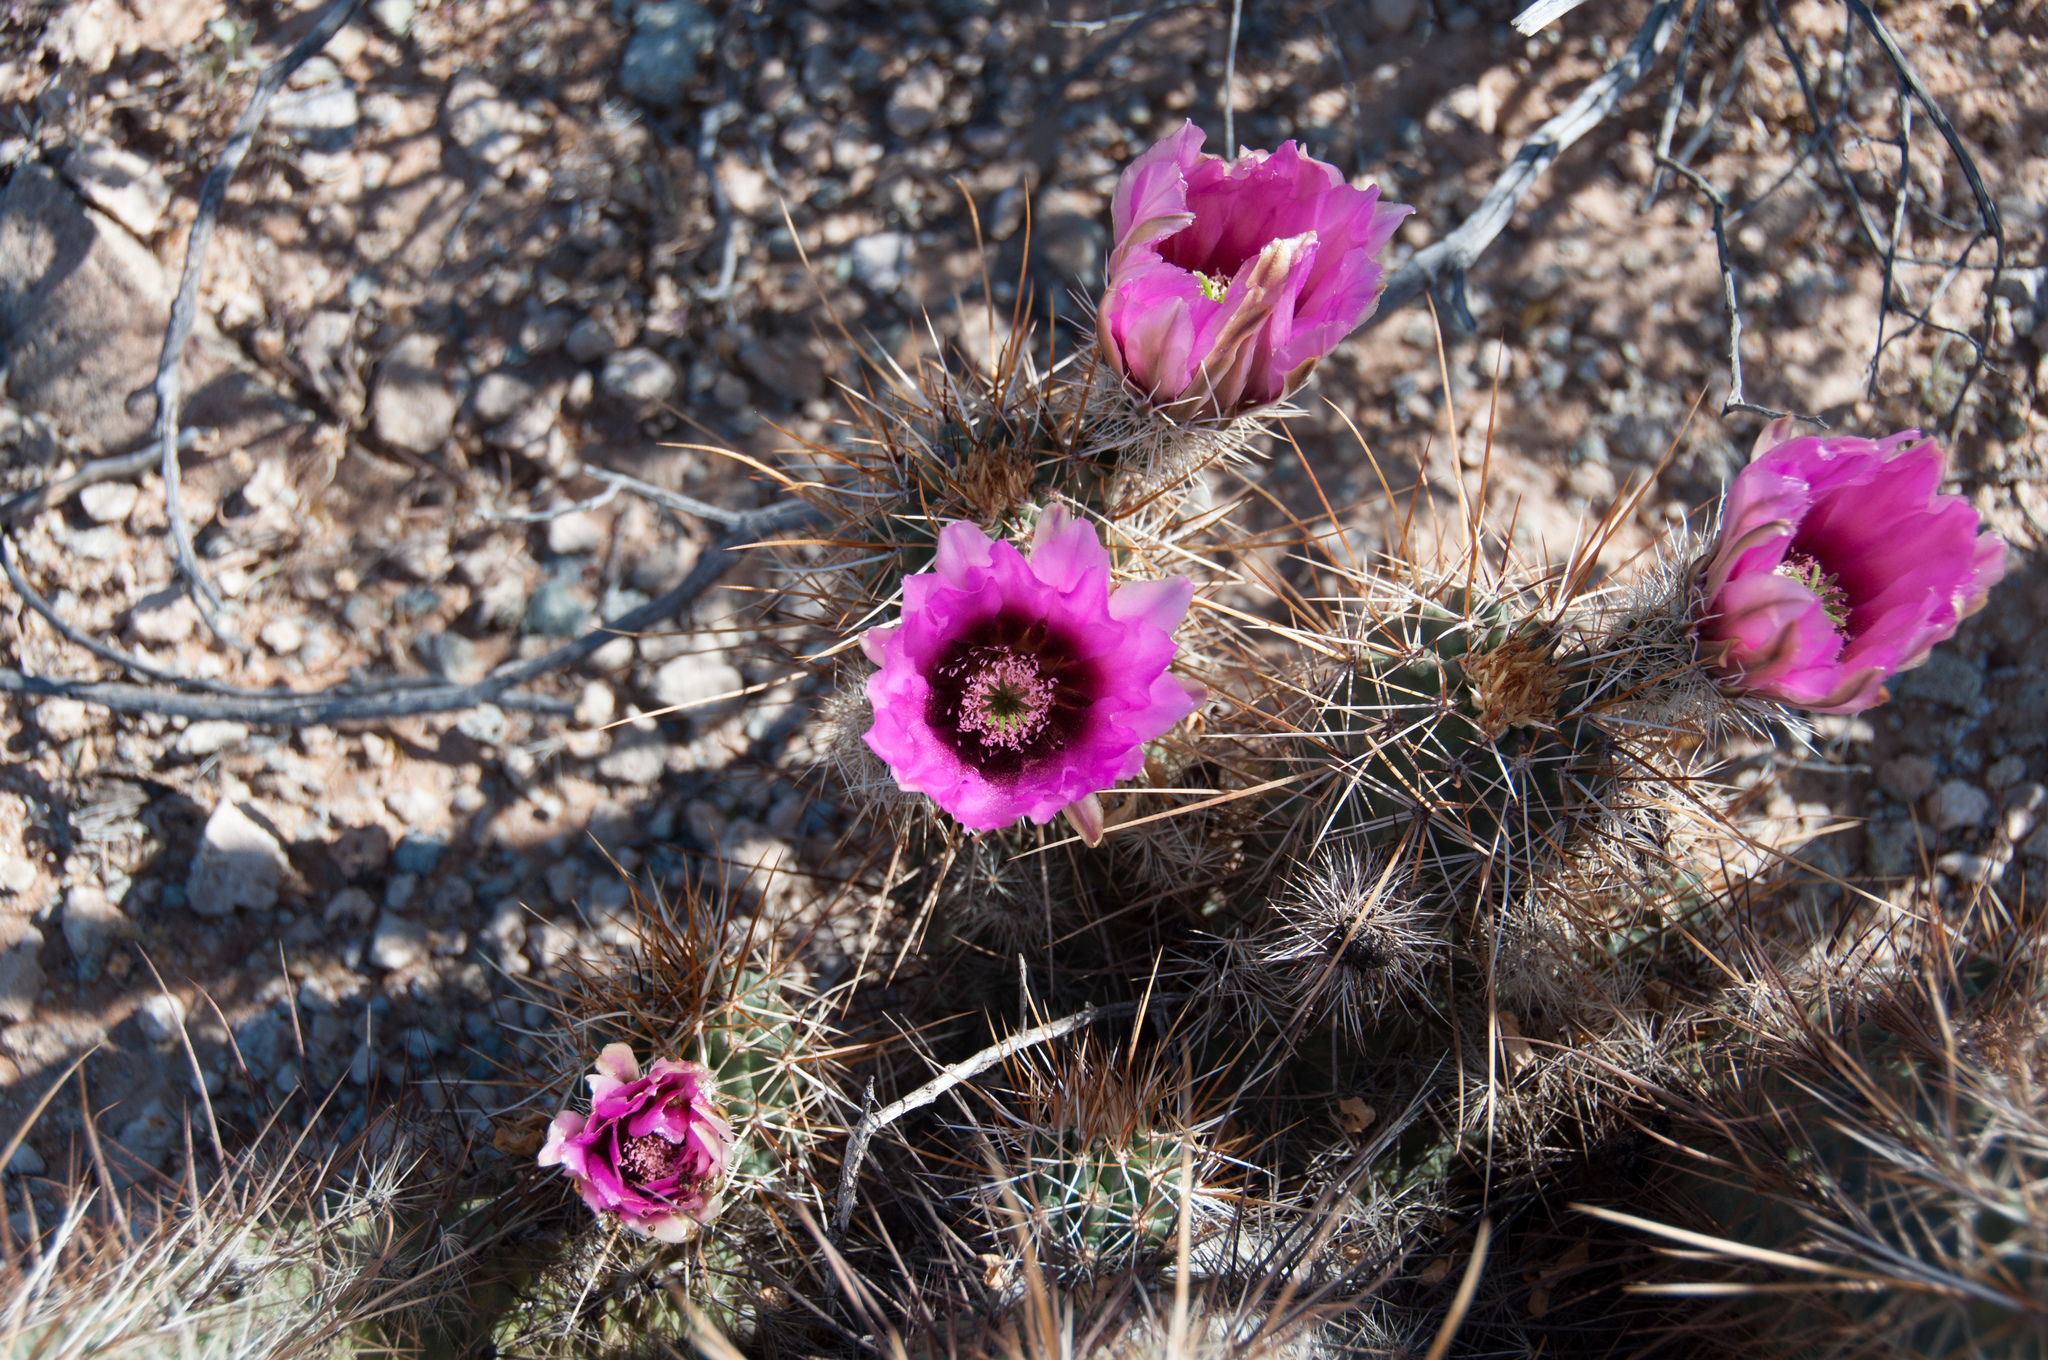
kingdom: Plantae
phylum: Tracheophyta
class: Magnoliopsida
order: Caryophyllales
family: Cactaceae
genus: Echinocereus
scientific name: Echinocereus fasciculatus
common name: Bundle hedgehog
